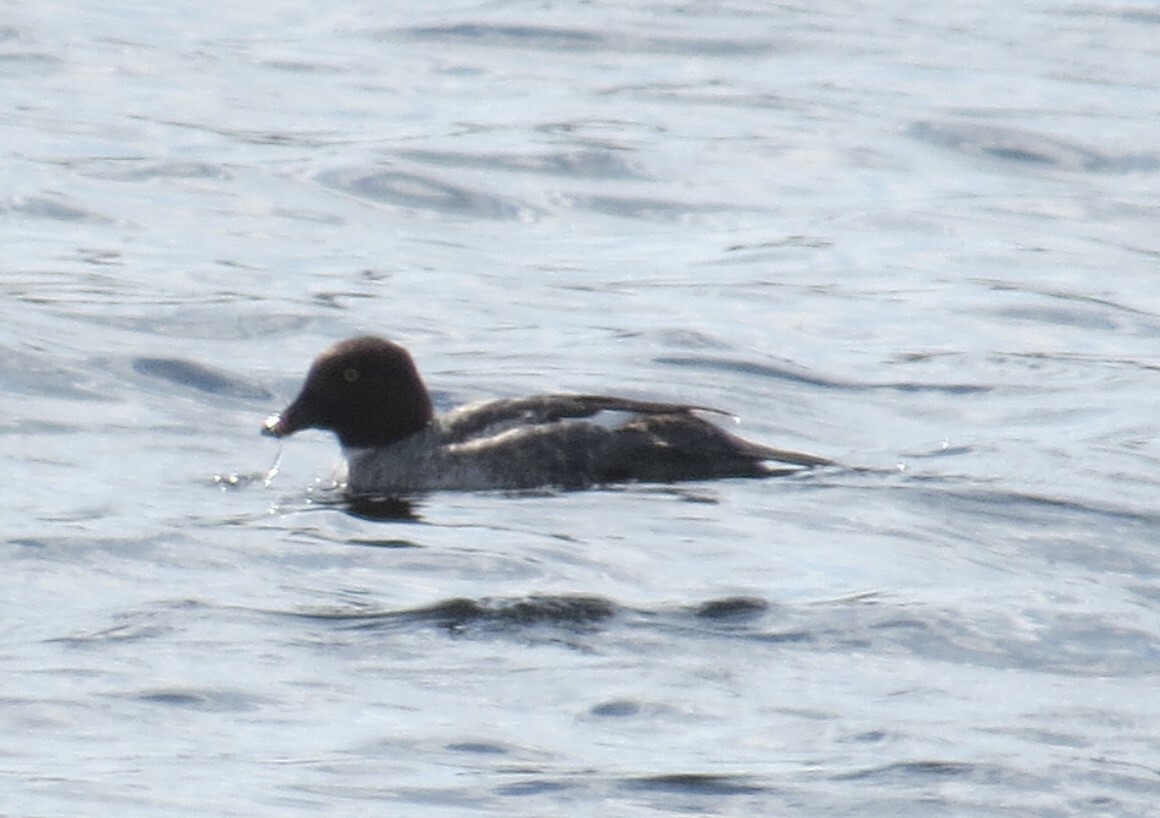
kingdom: Animalia
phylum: Chordata
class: Aves
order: Anseriformes
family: Anatidae
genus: Bucephala
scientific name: Bucephala clangula
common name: Common goldeneye
